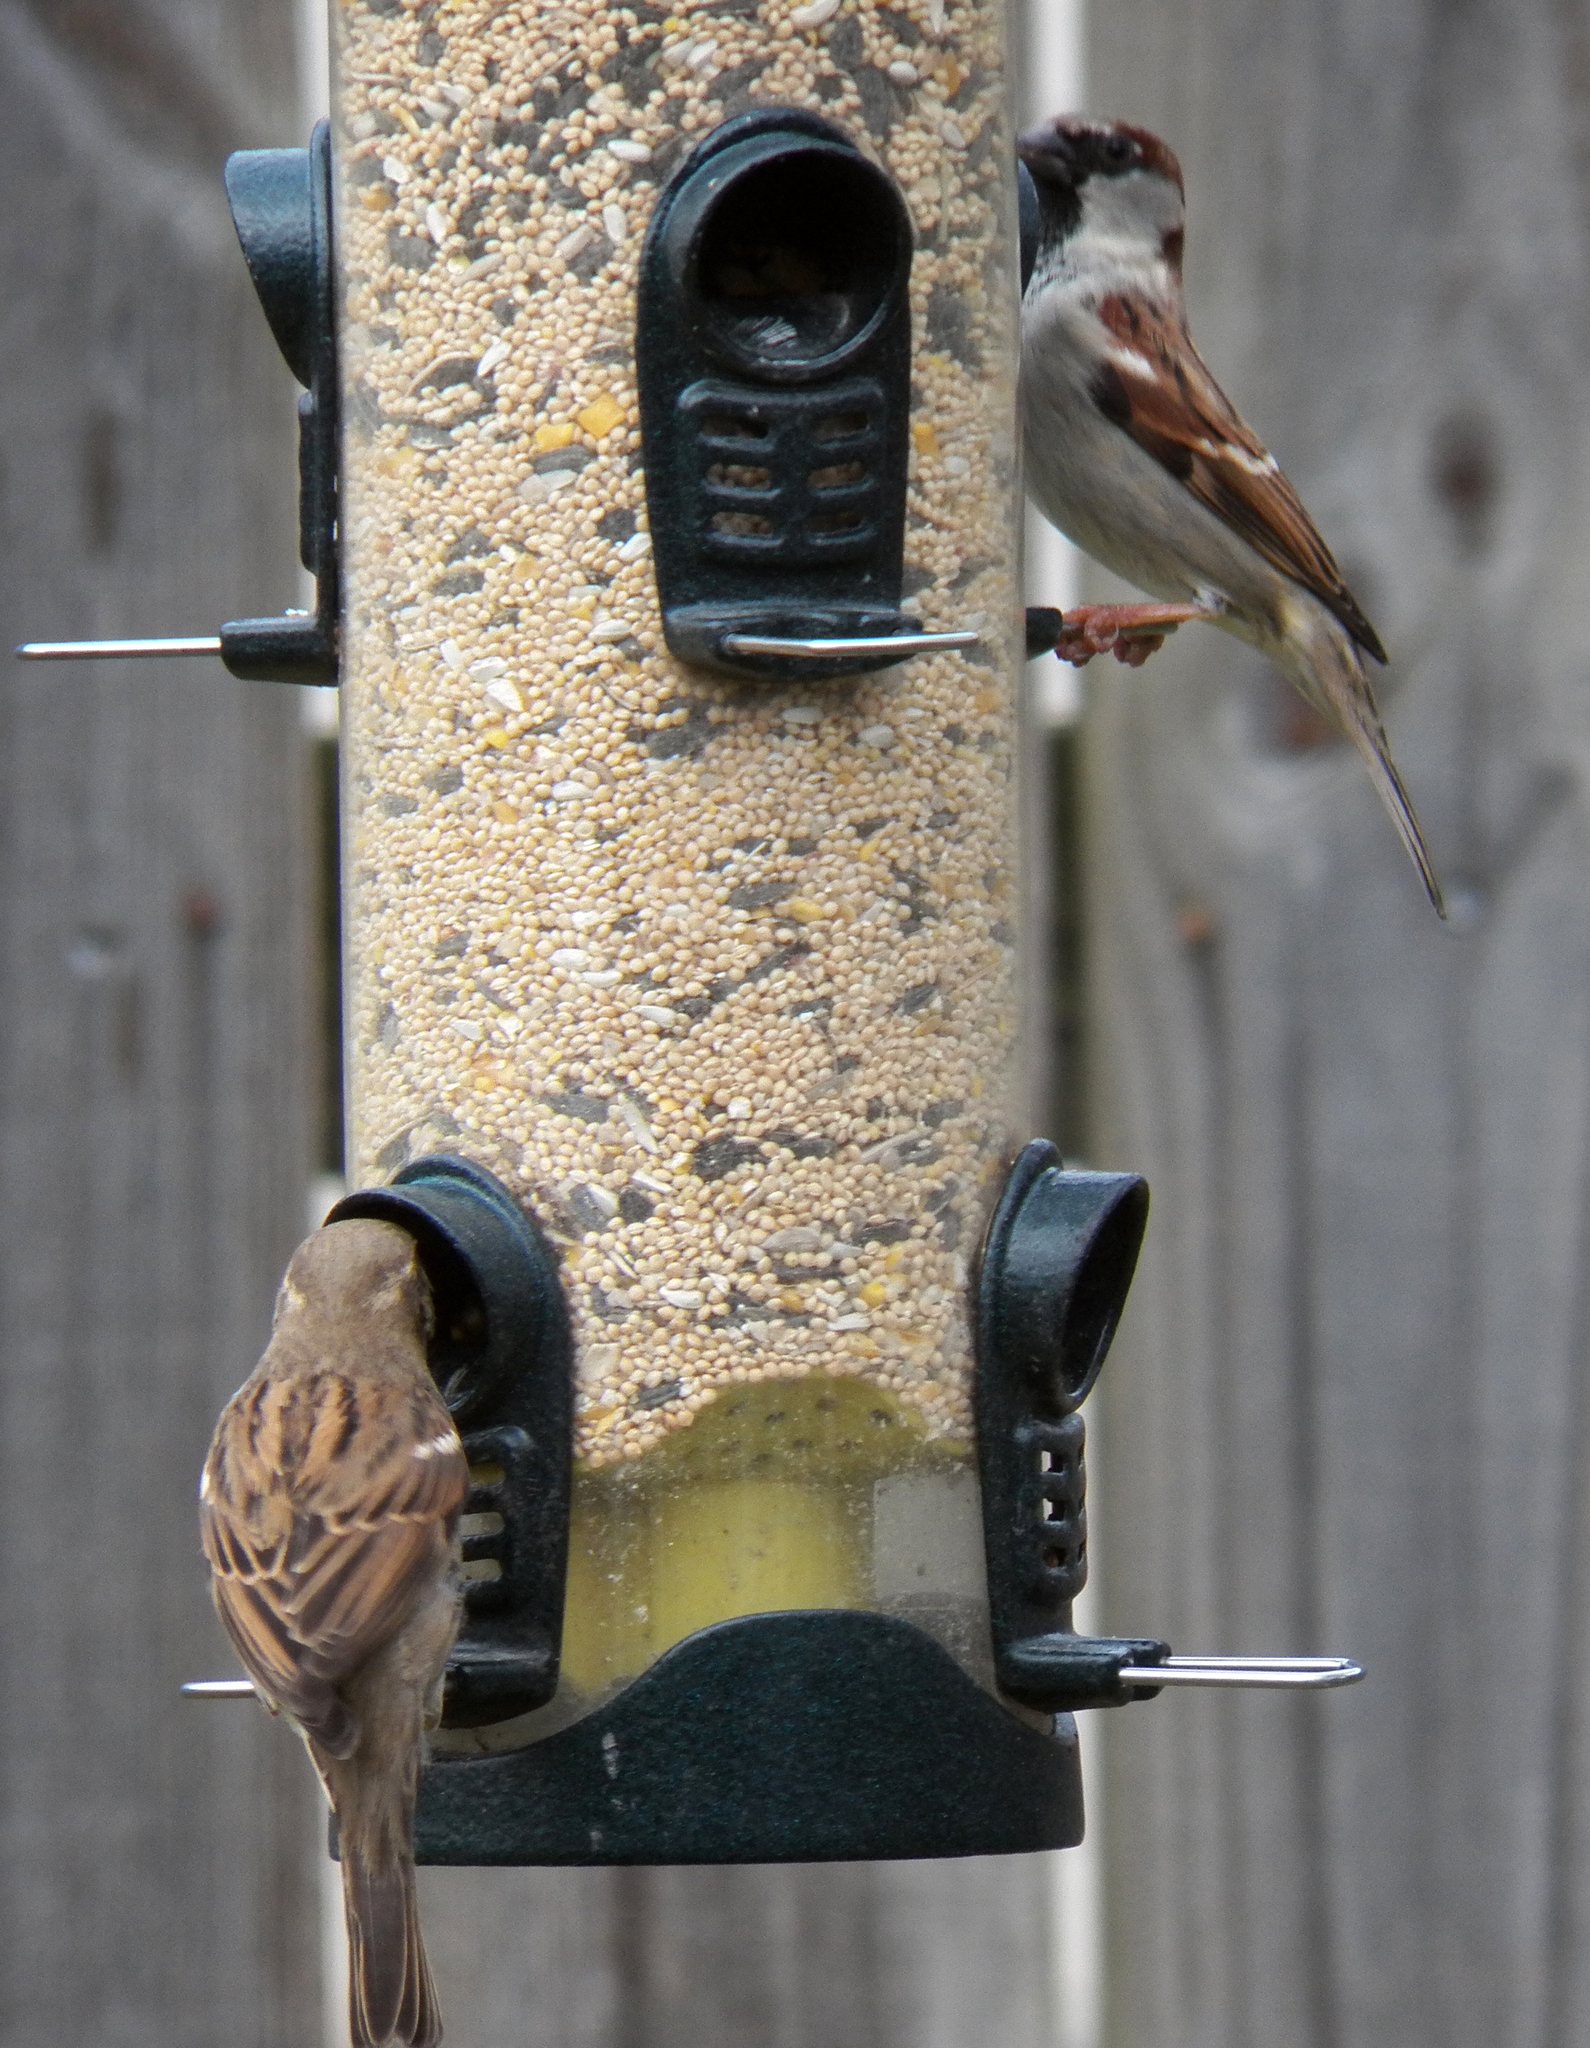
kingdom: Animalia
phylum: Chordata
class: Aves
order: Passeriformes
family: Passeridae
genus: Passer
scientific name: Passer domesticus
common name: House sparrow
